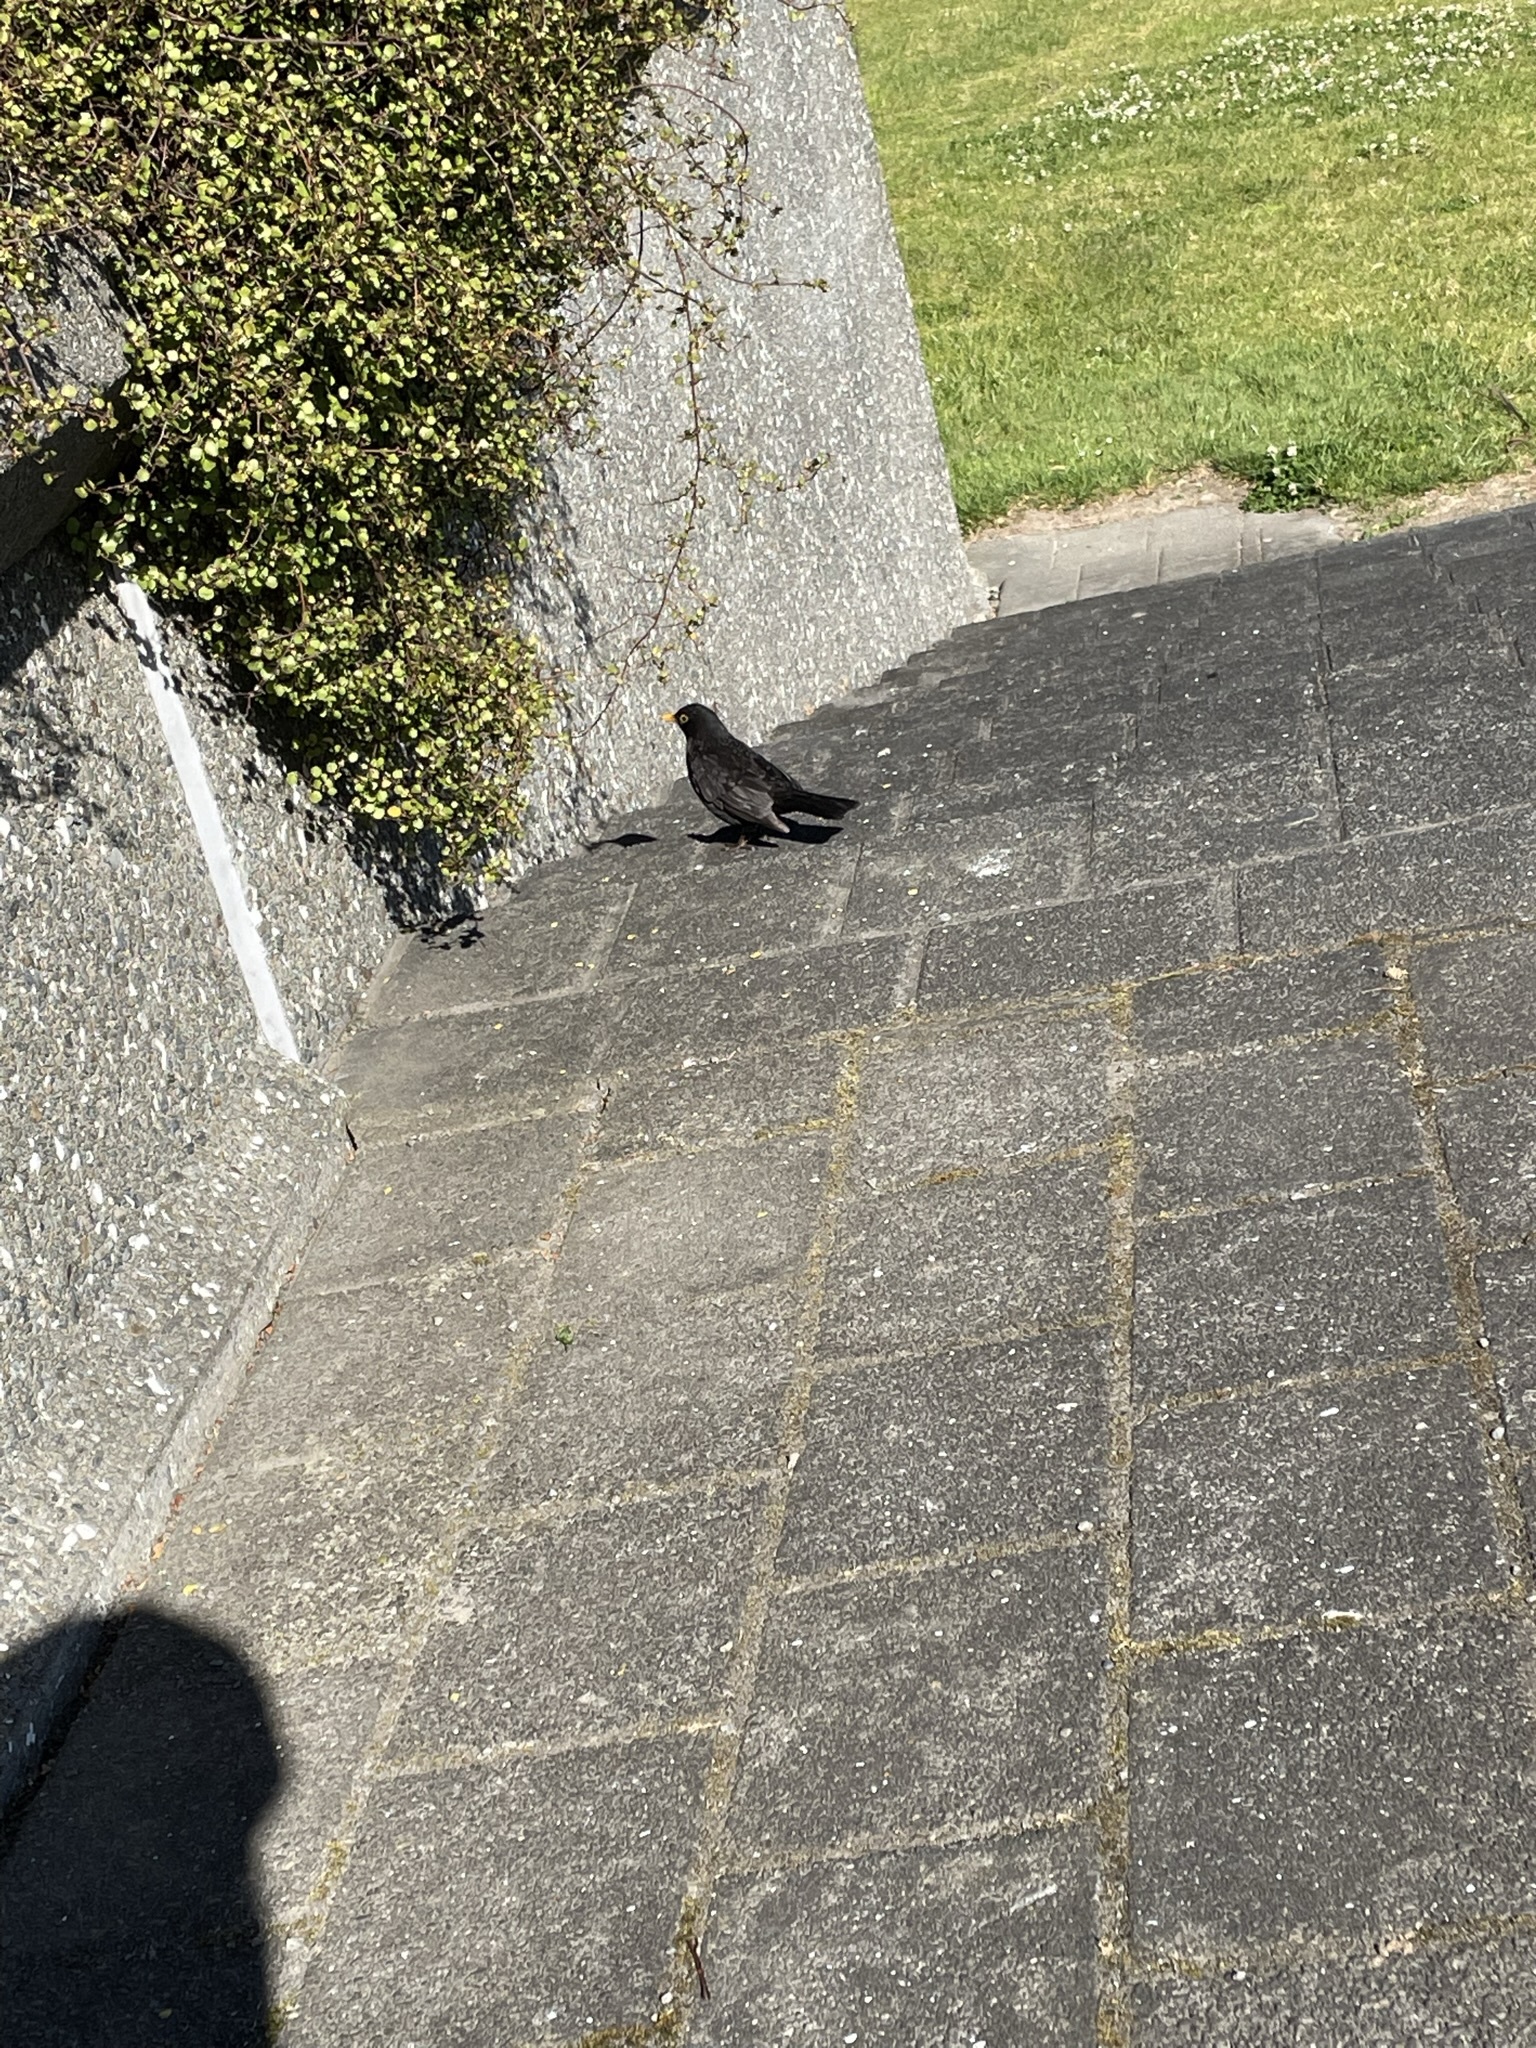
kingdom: Animalia
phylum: Chordata
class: Aves
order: Passeriformes
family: Turdidae
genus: Turdus
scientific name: Turdus merula
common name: Common blackbird
